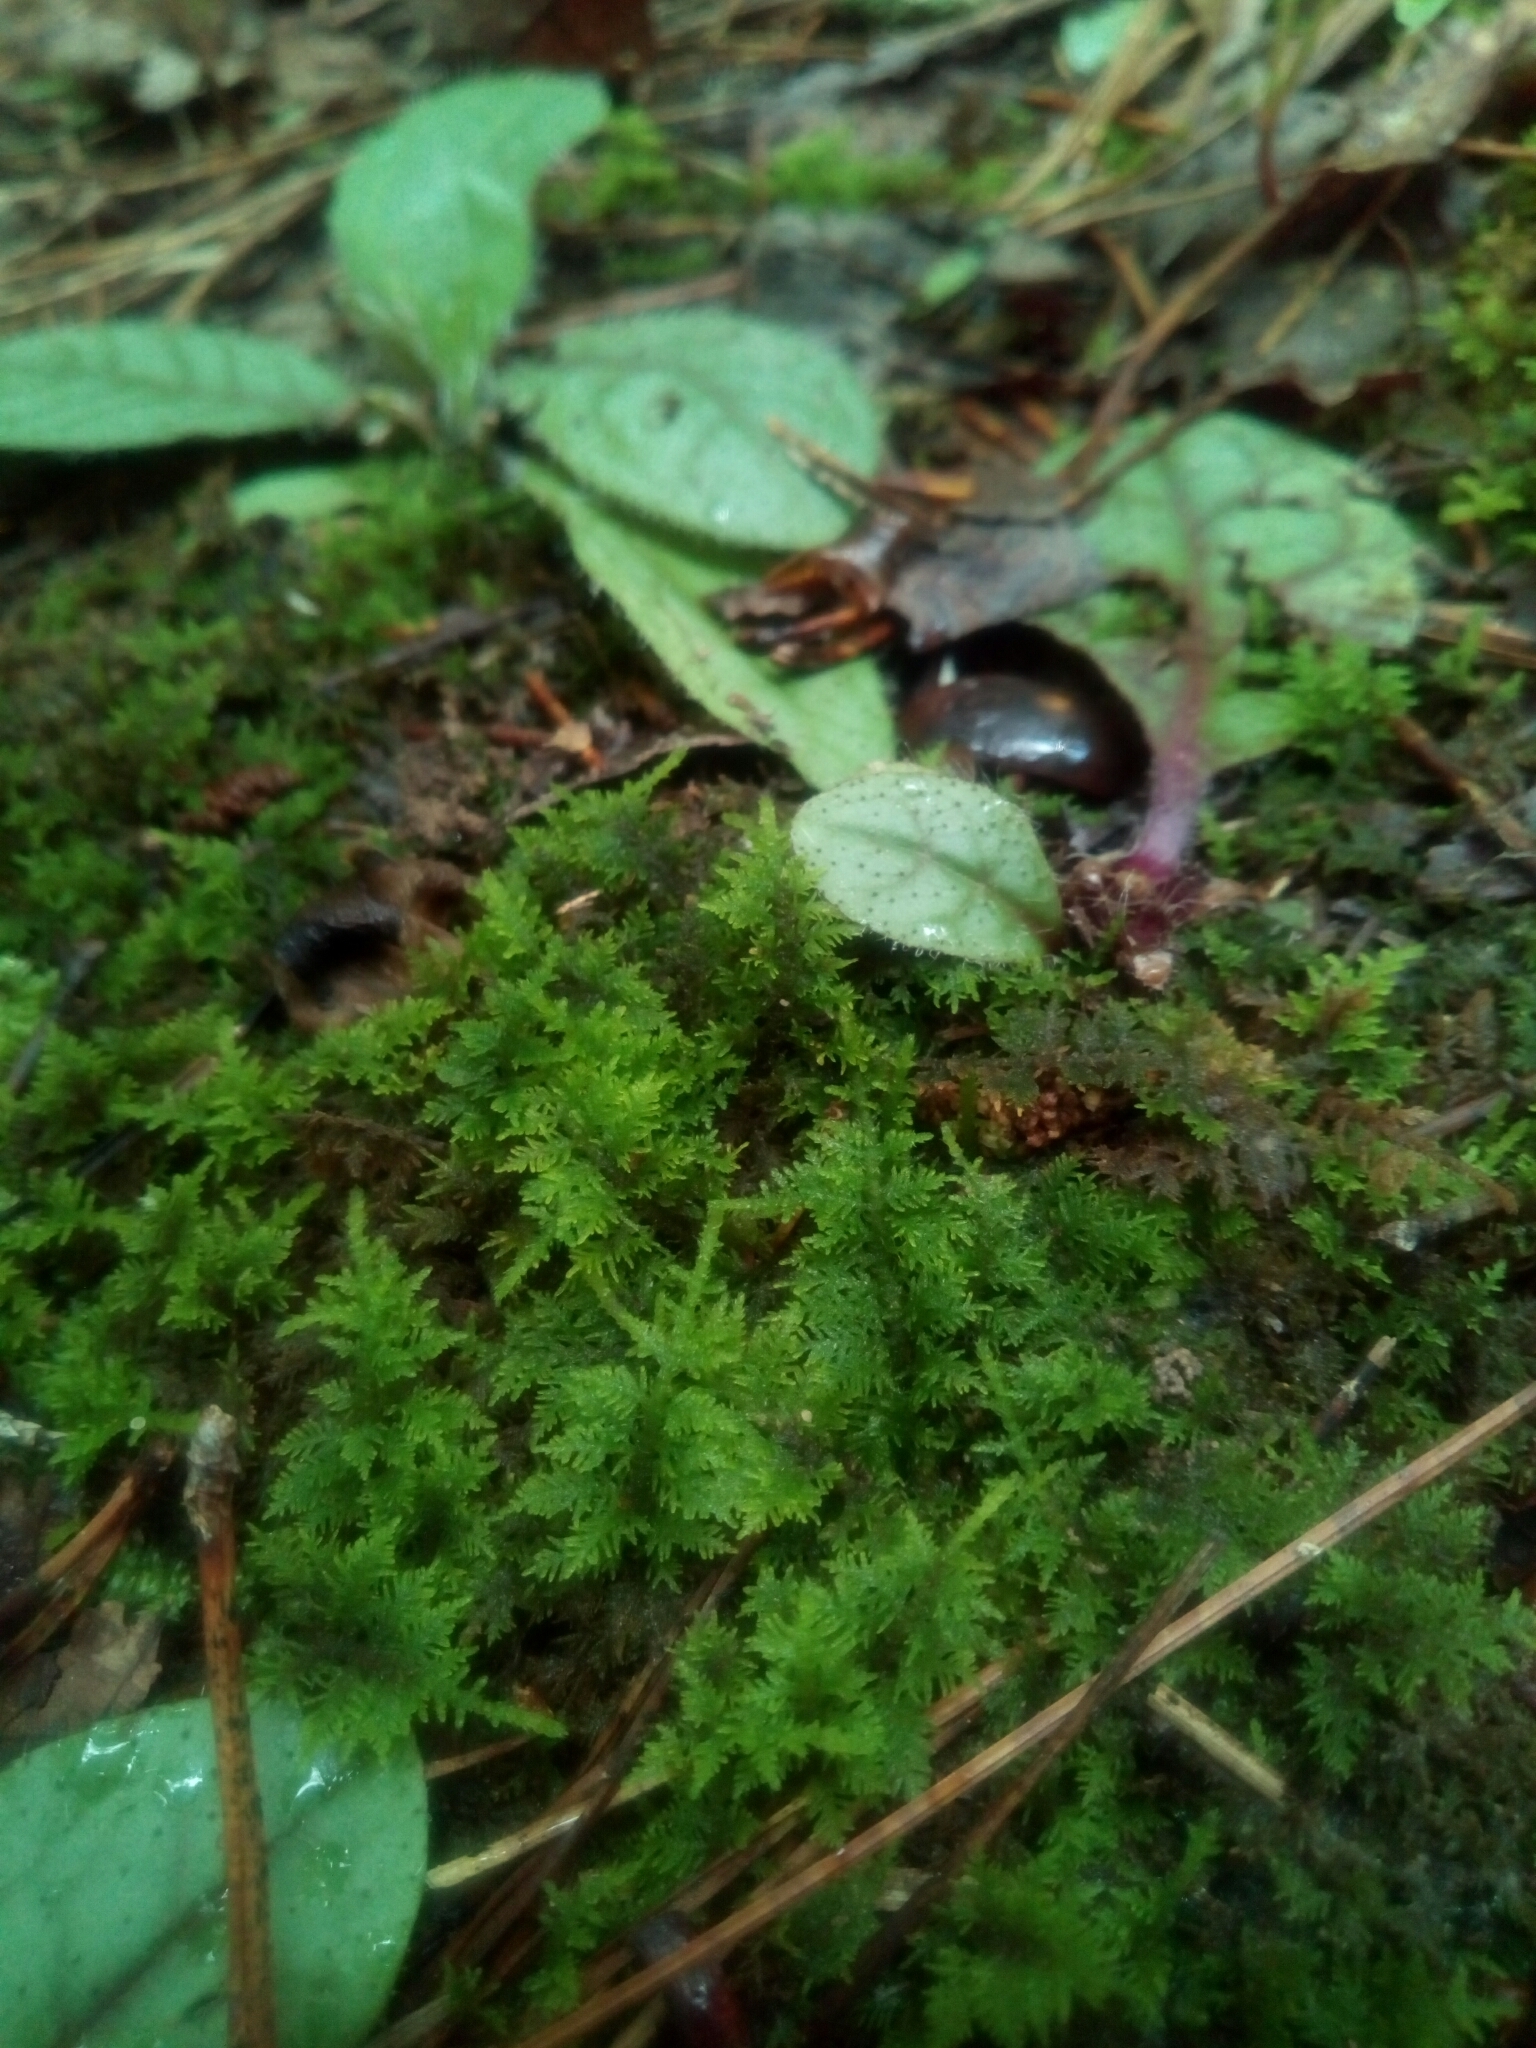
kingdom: Plantae
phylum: Bryophyta
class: Bryopsida
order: Hypnales
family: Thuidiaceae
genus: Thuidium
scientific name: Thuidium delicatulum
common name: Delicate fern moss
